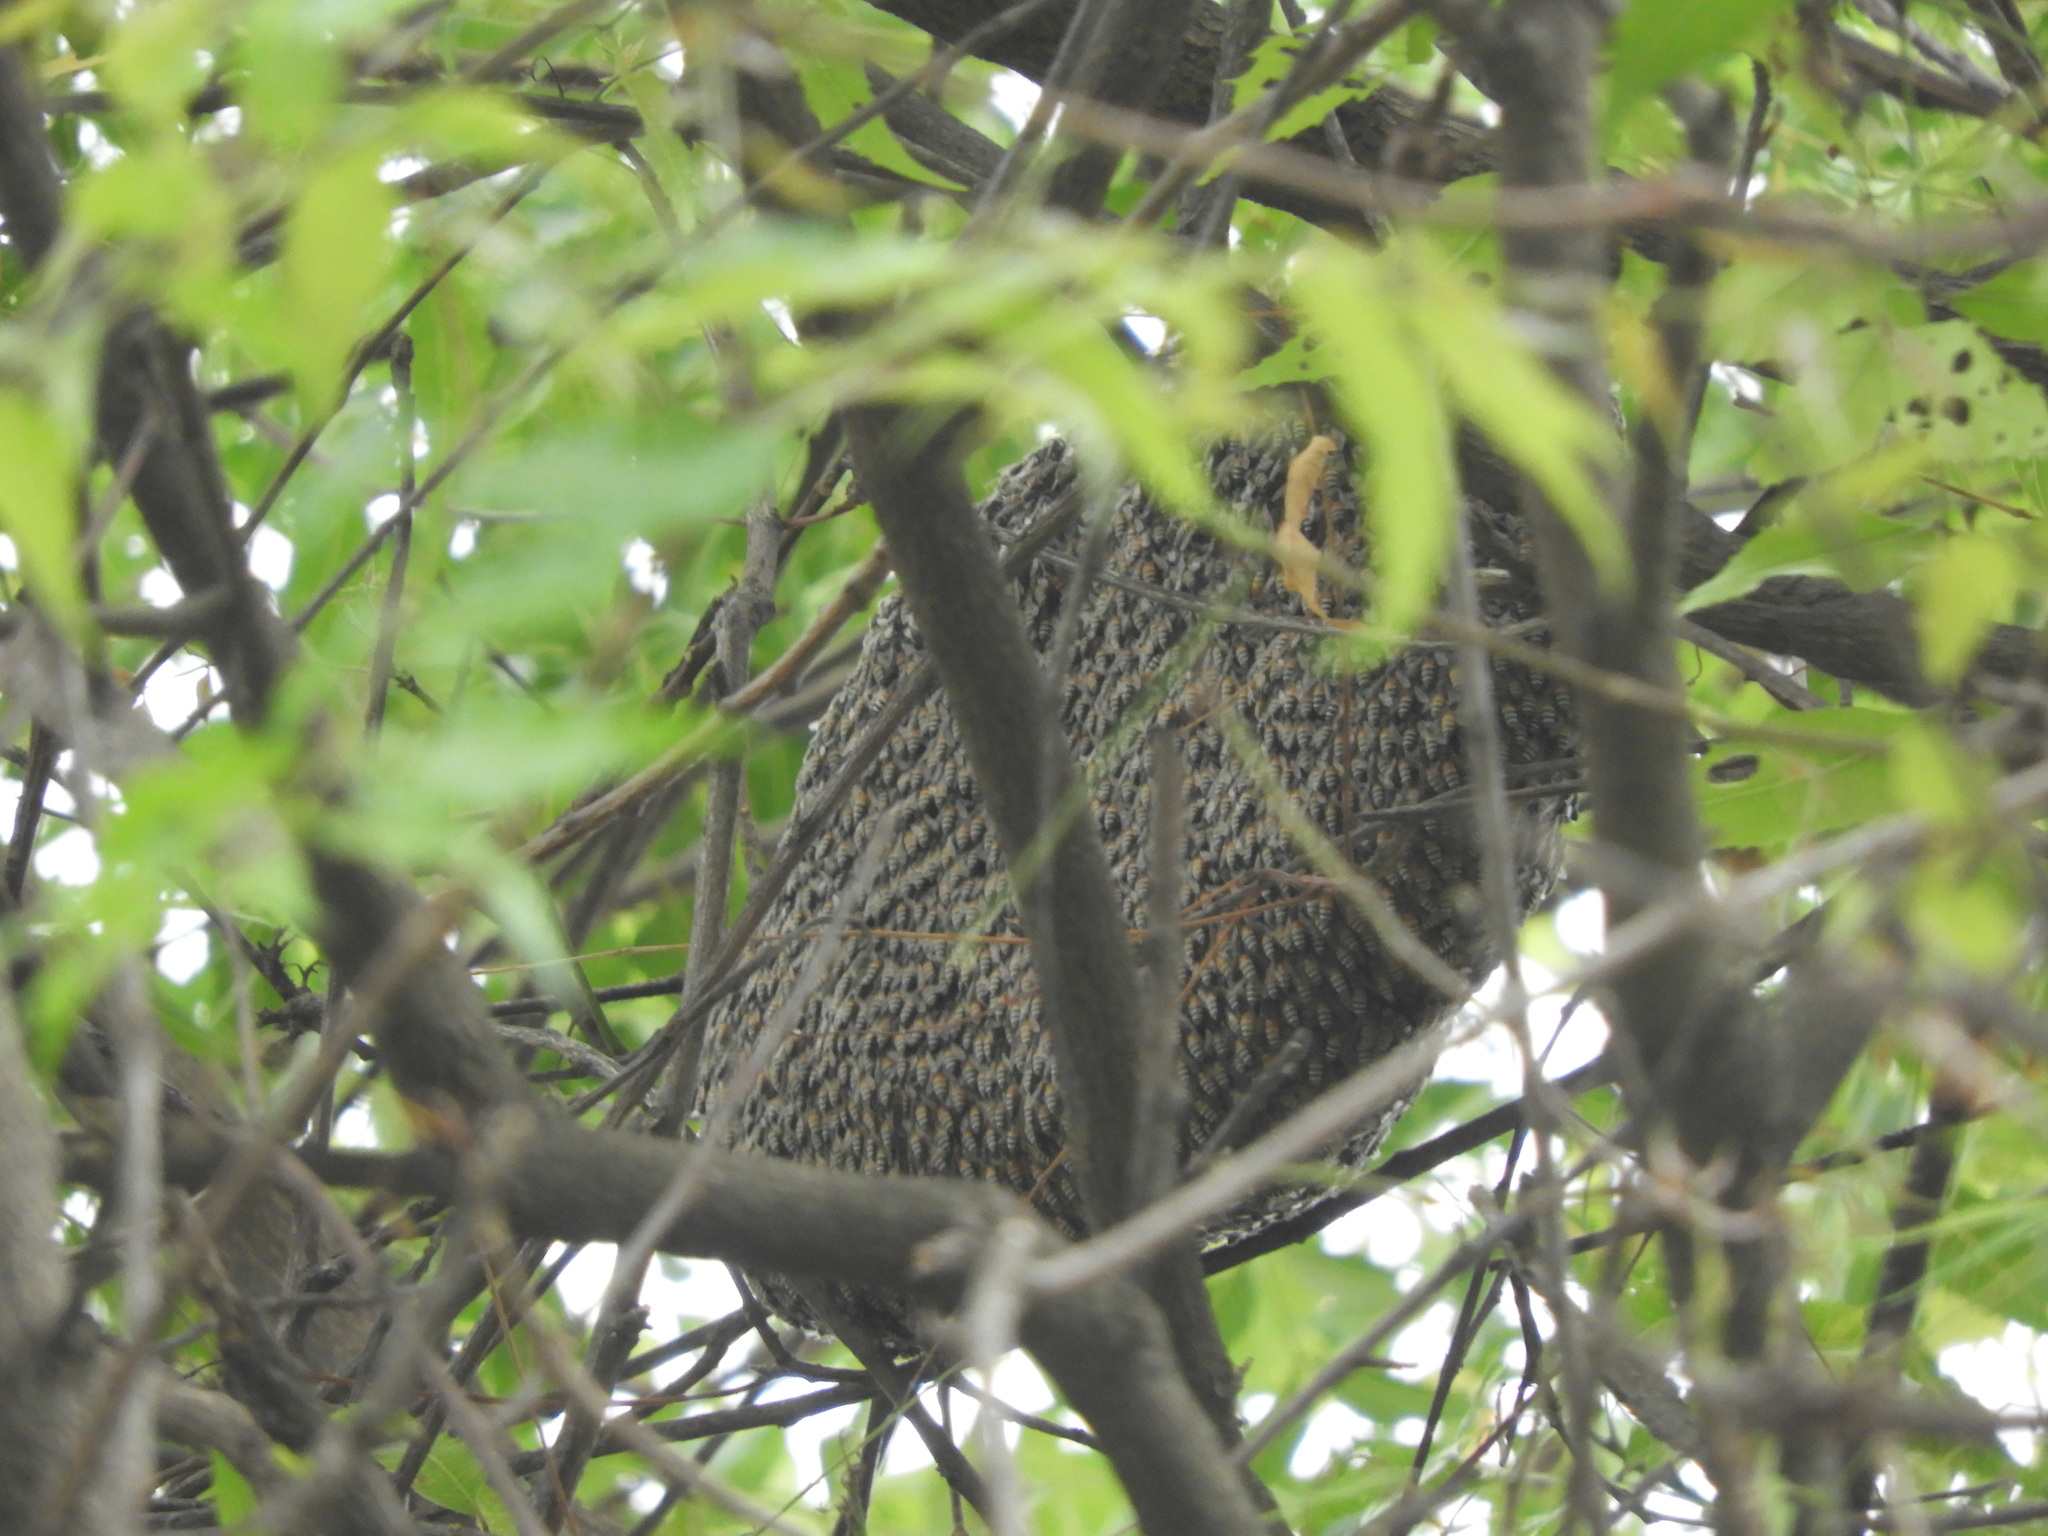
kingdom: Animalia
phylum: Arthropoda
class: Insecta
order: Hymenoptera
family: Apidae
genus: Apis
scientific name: Apis florea
